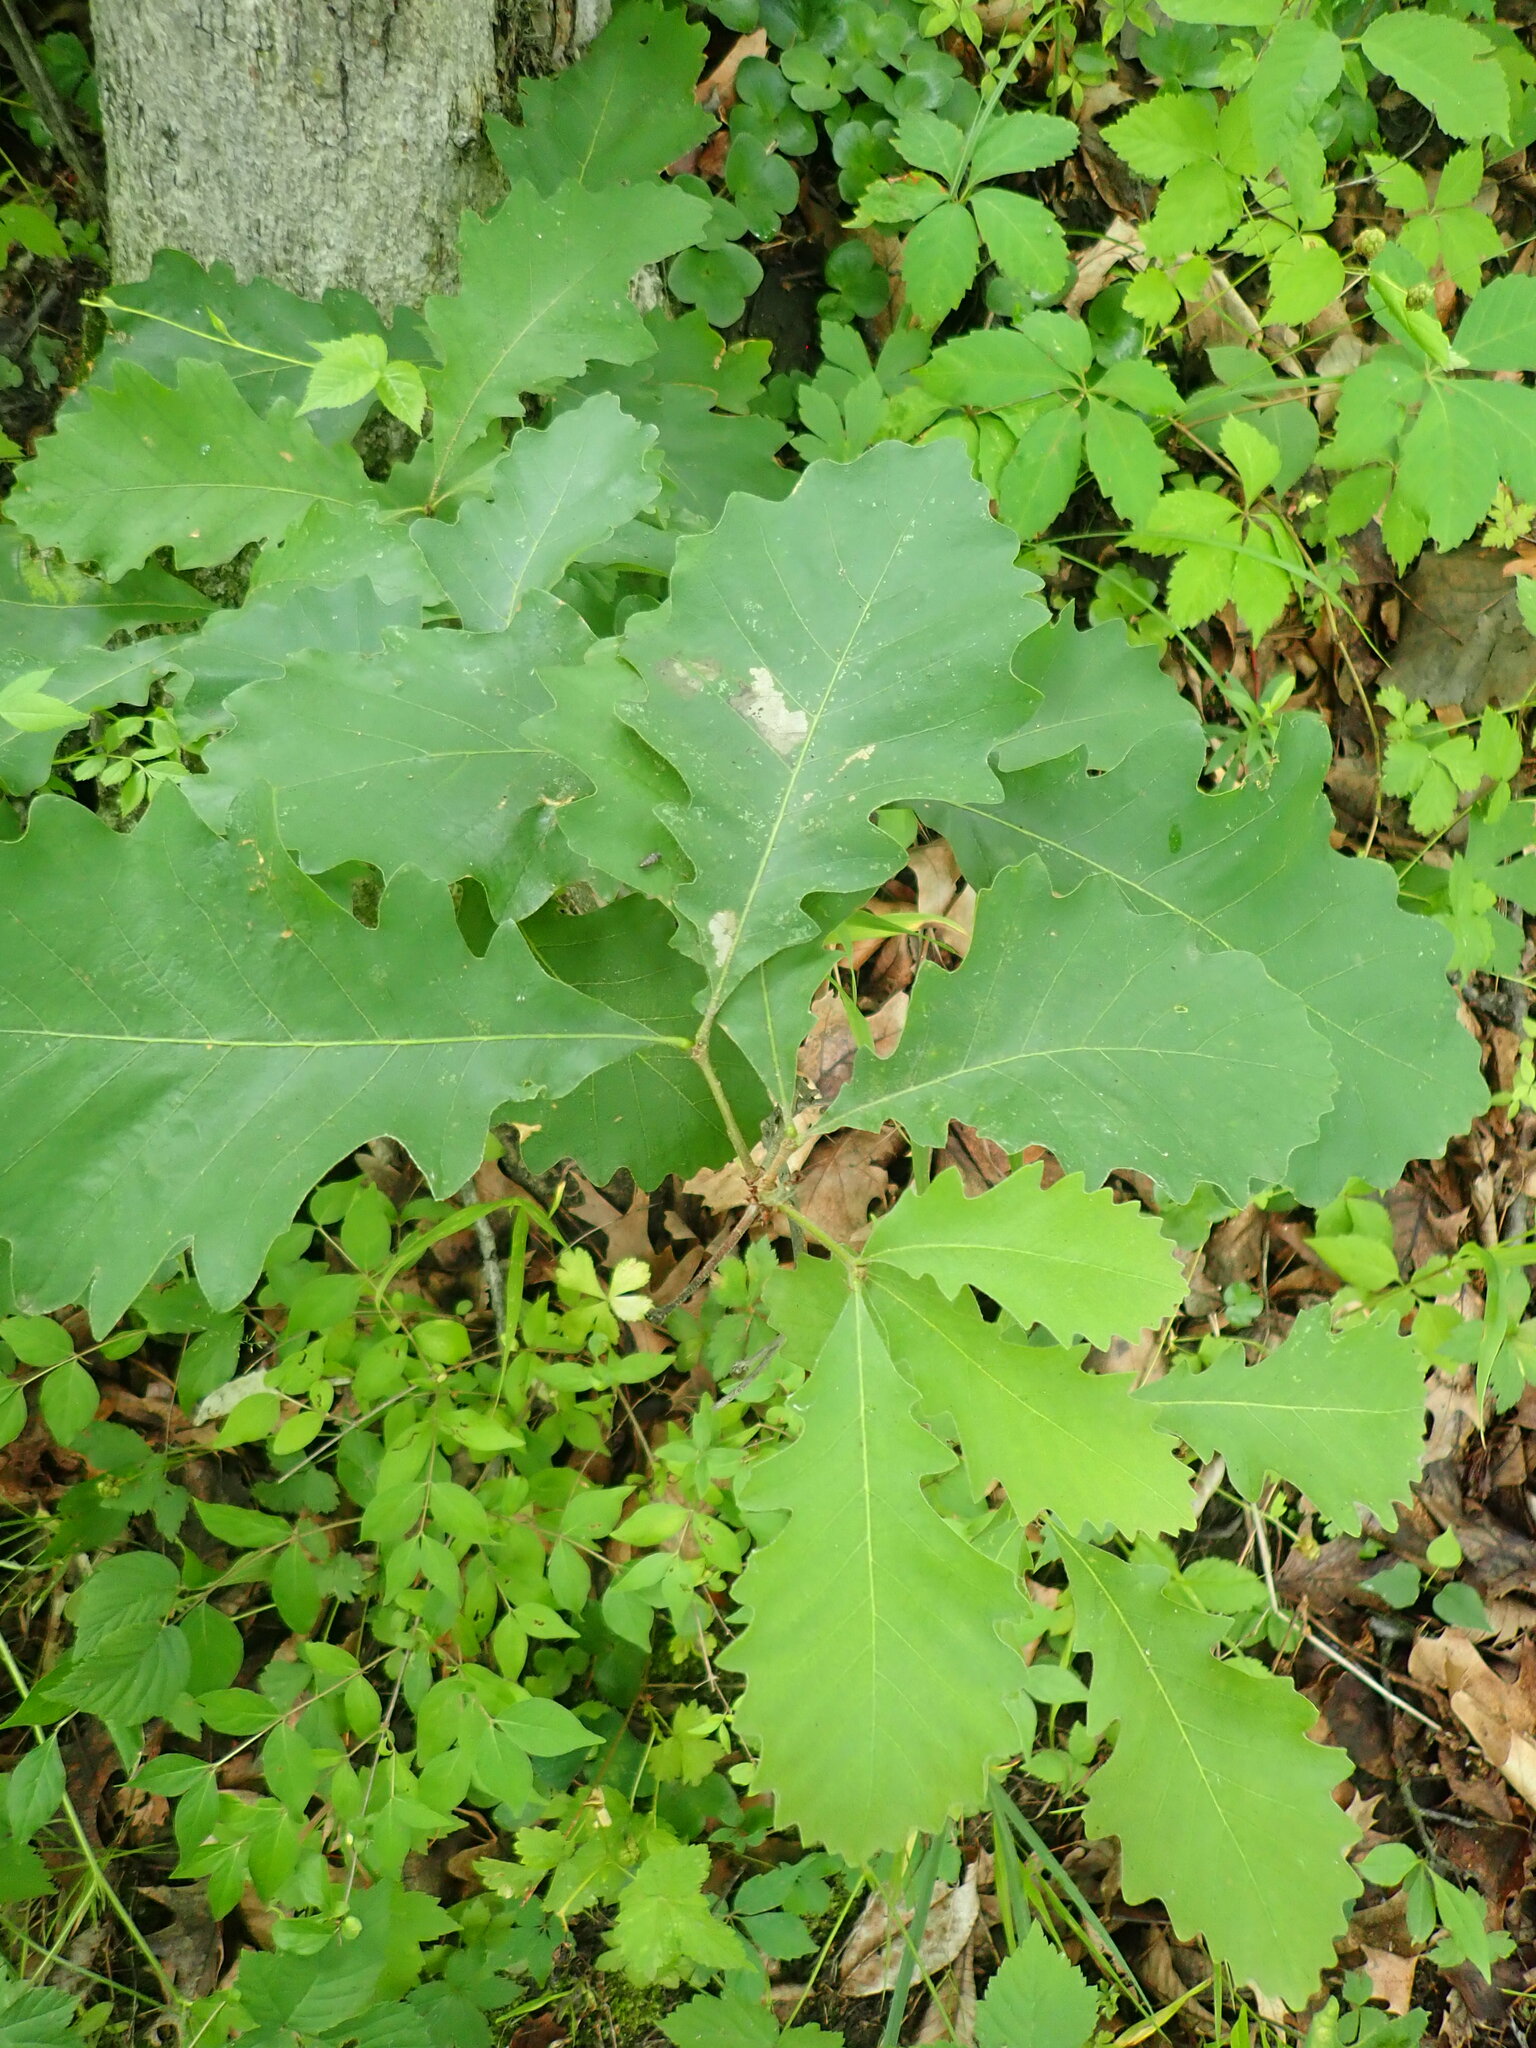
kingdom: Plantae
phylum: Tracheophyta
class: Magnoliopsida
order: Fagales
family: Fagaceae
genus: Quercus
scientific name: Quercus macrocarpa
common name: Bur oak
